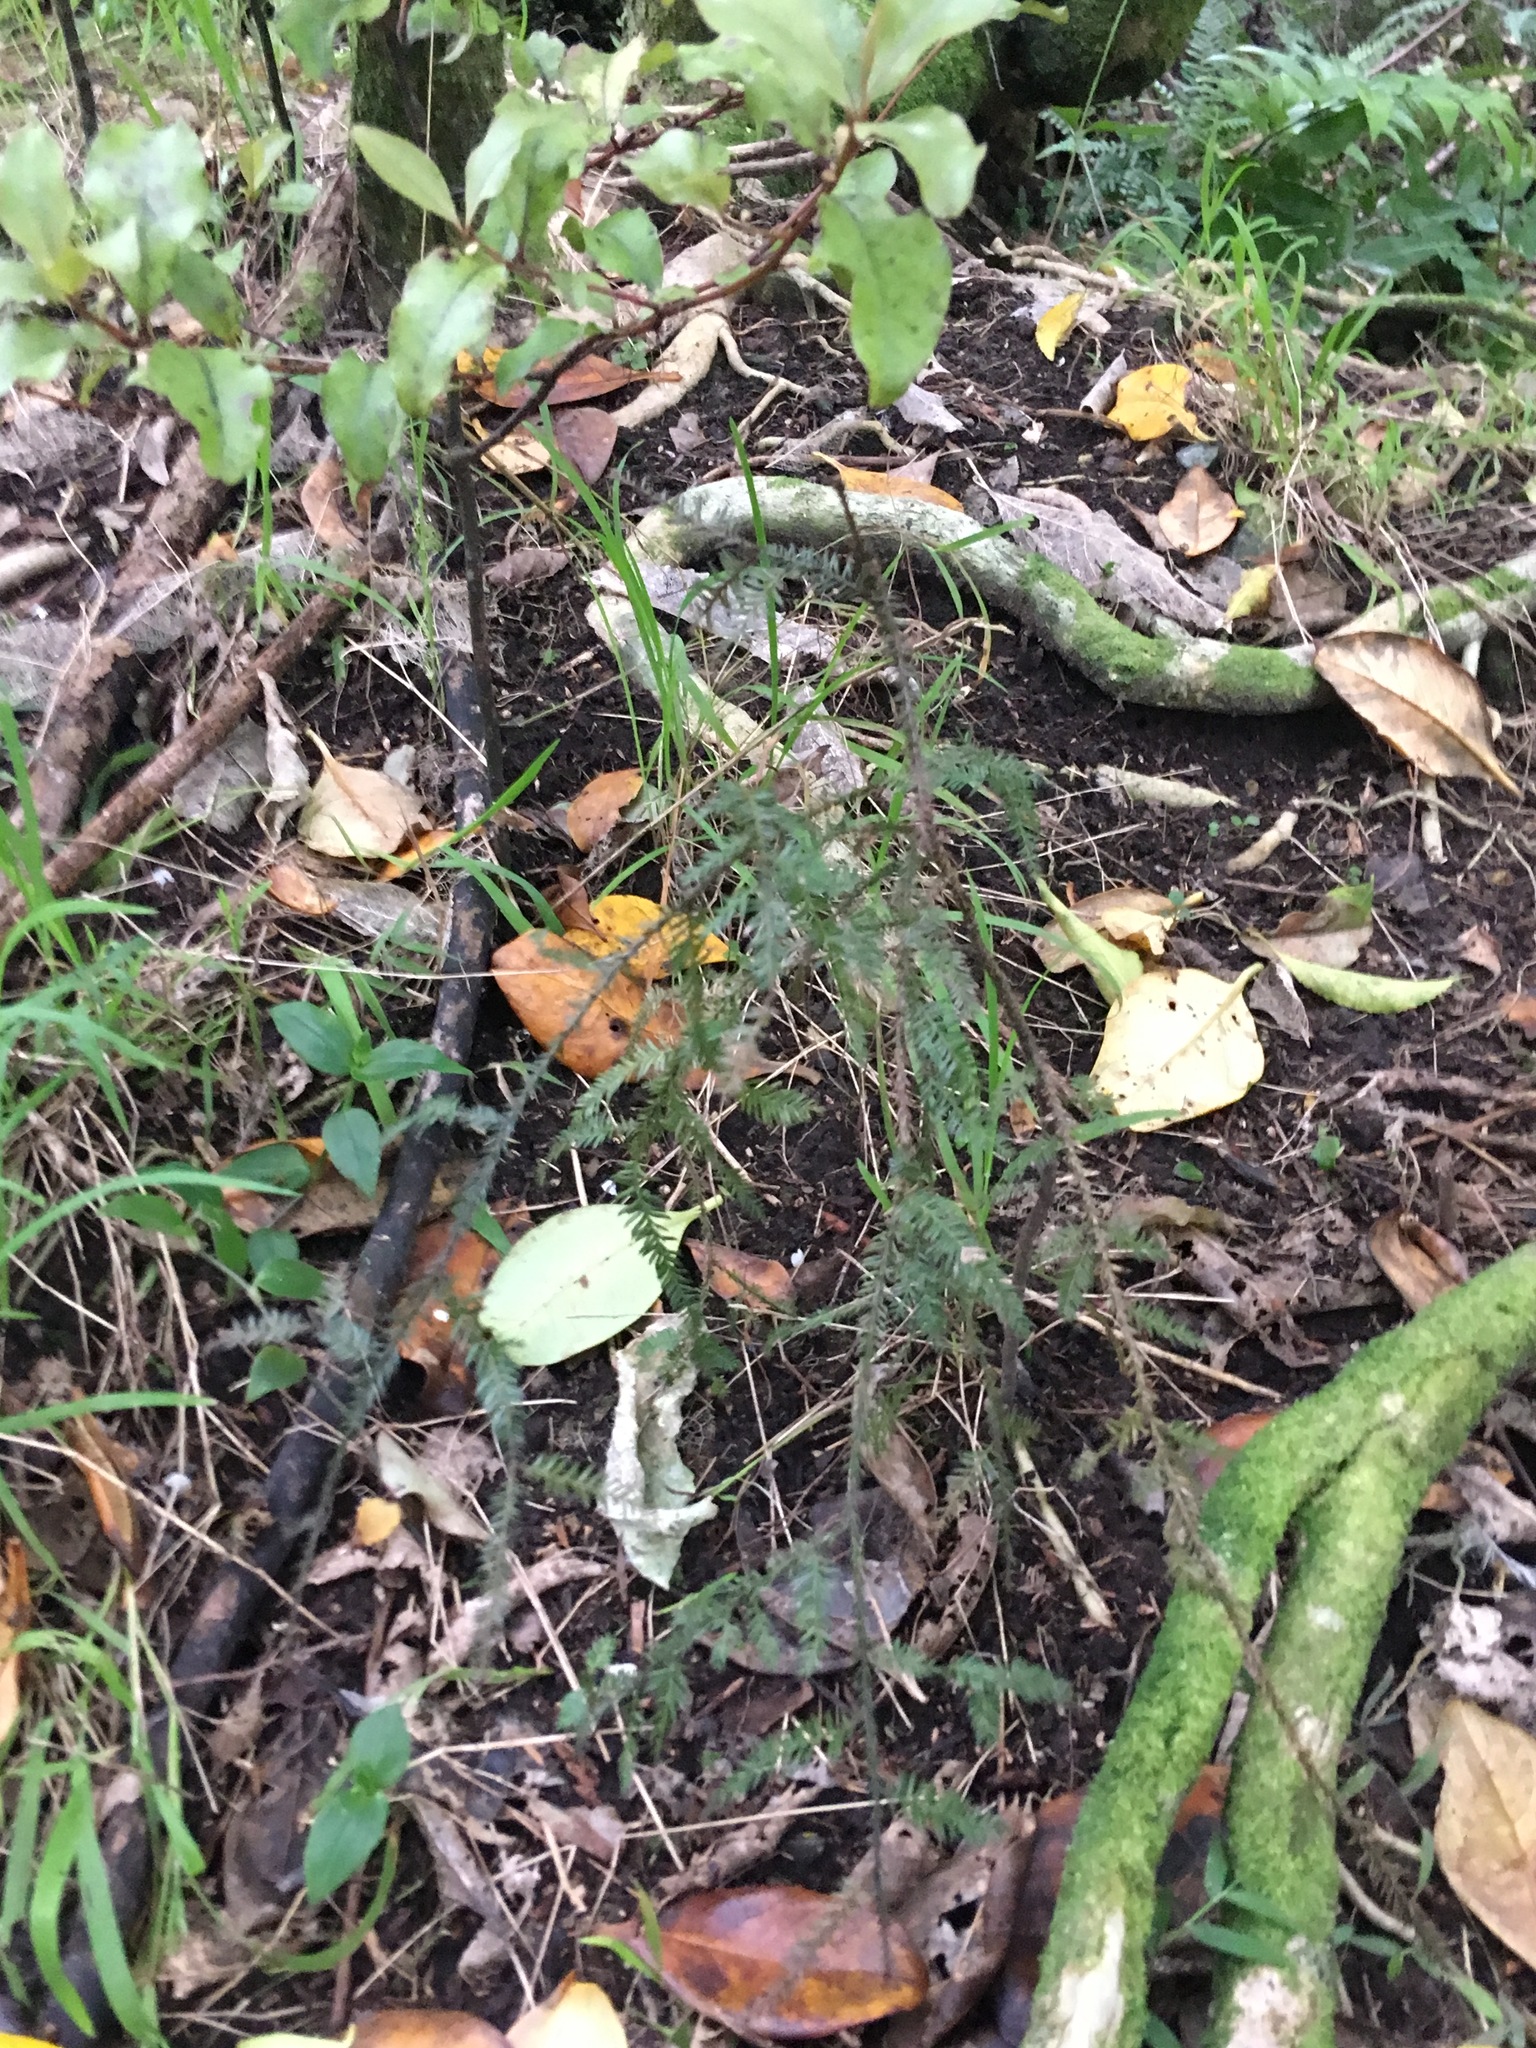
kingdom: Plantae
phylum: Tracheophyta
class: Pinopsida
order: Pinales
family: Podocarpaceae
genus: Dacrycarpus
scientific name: Dacrycarpus dacrydioides
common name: White pine
